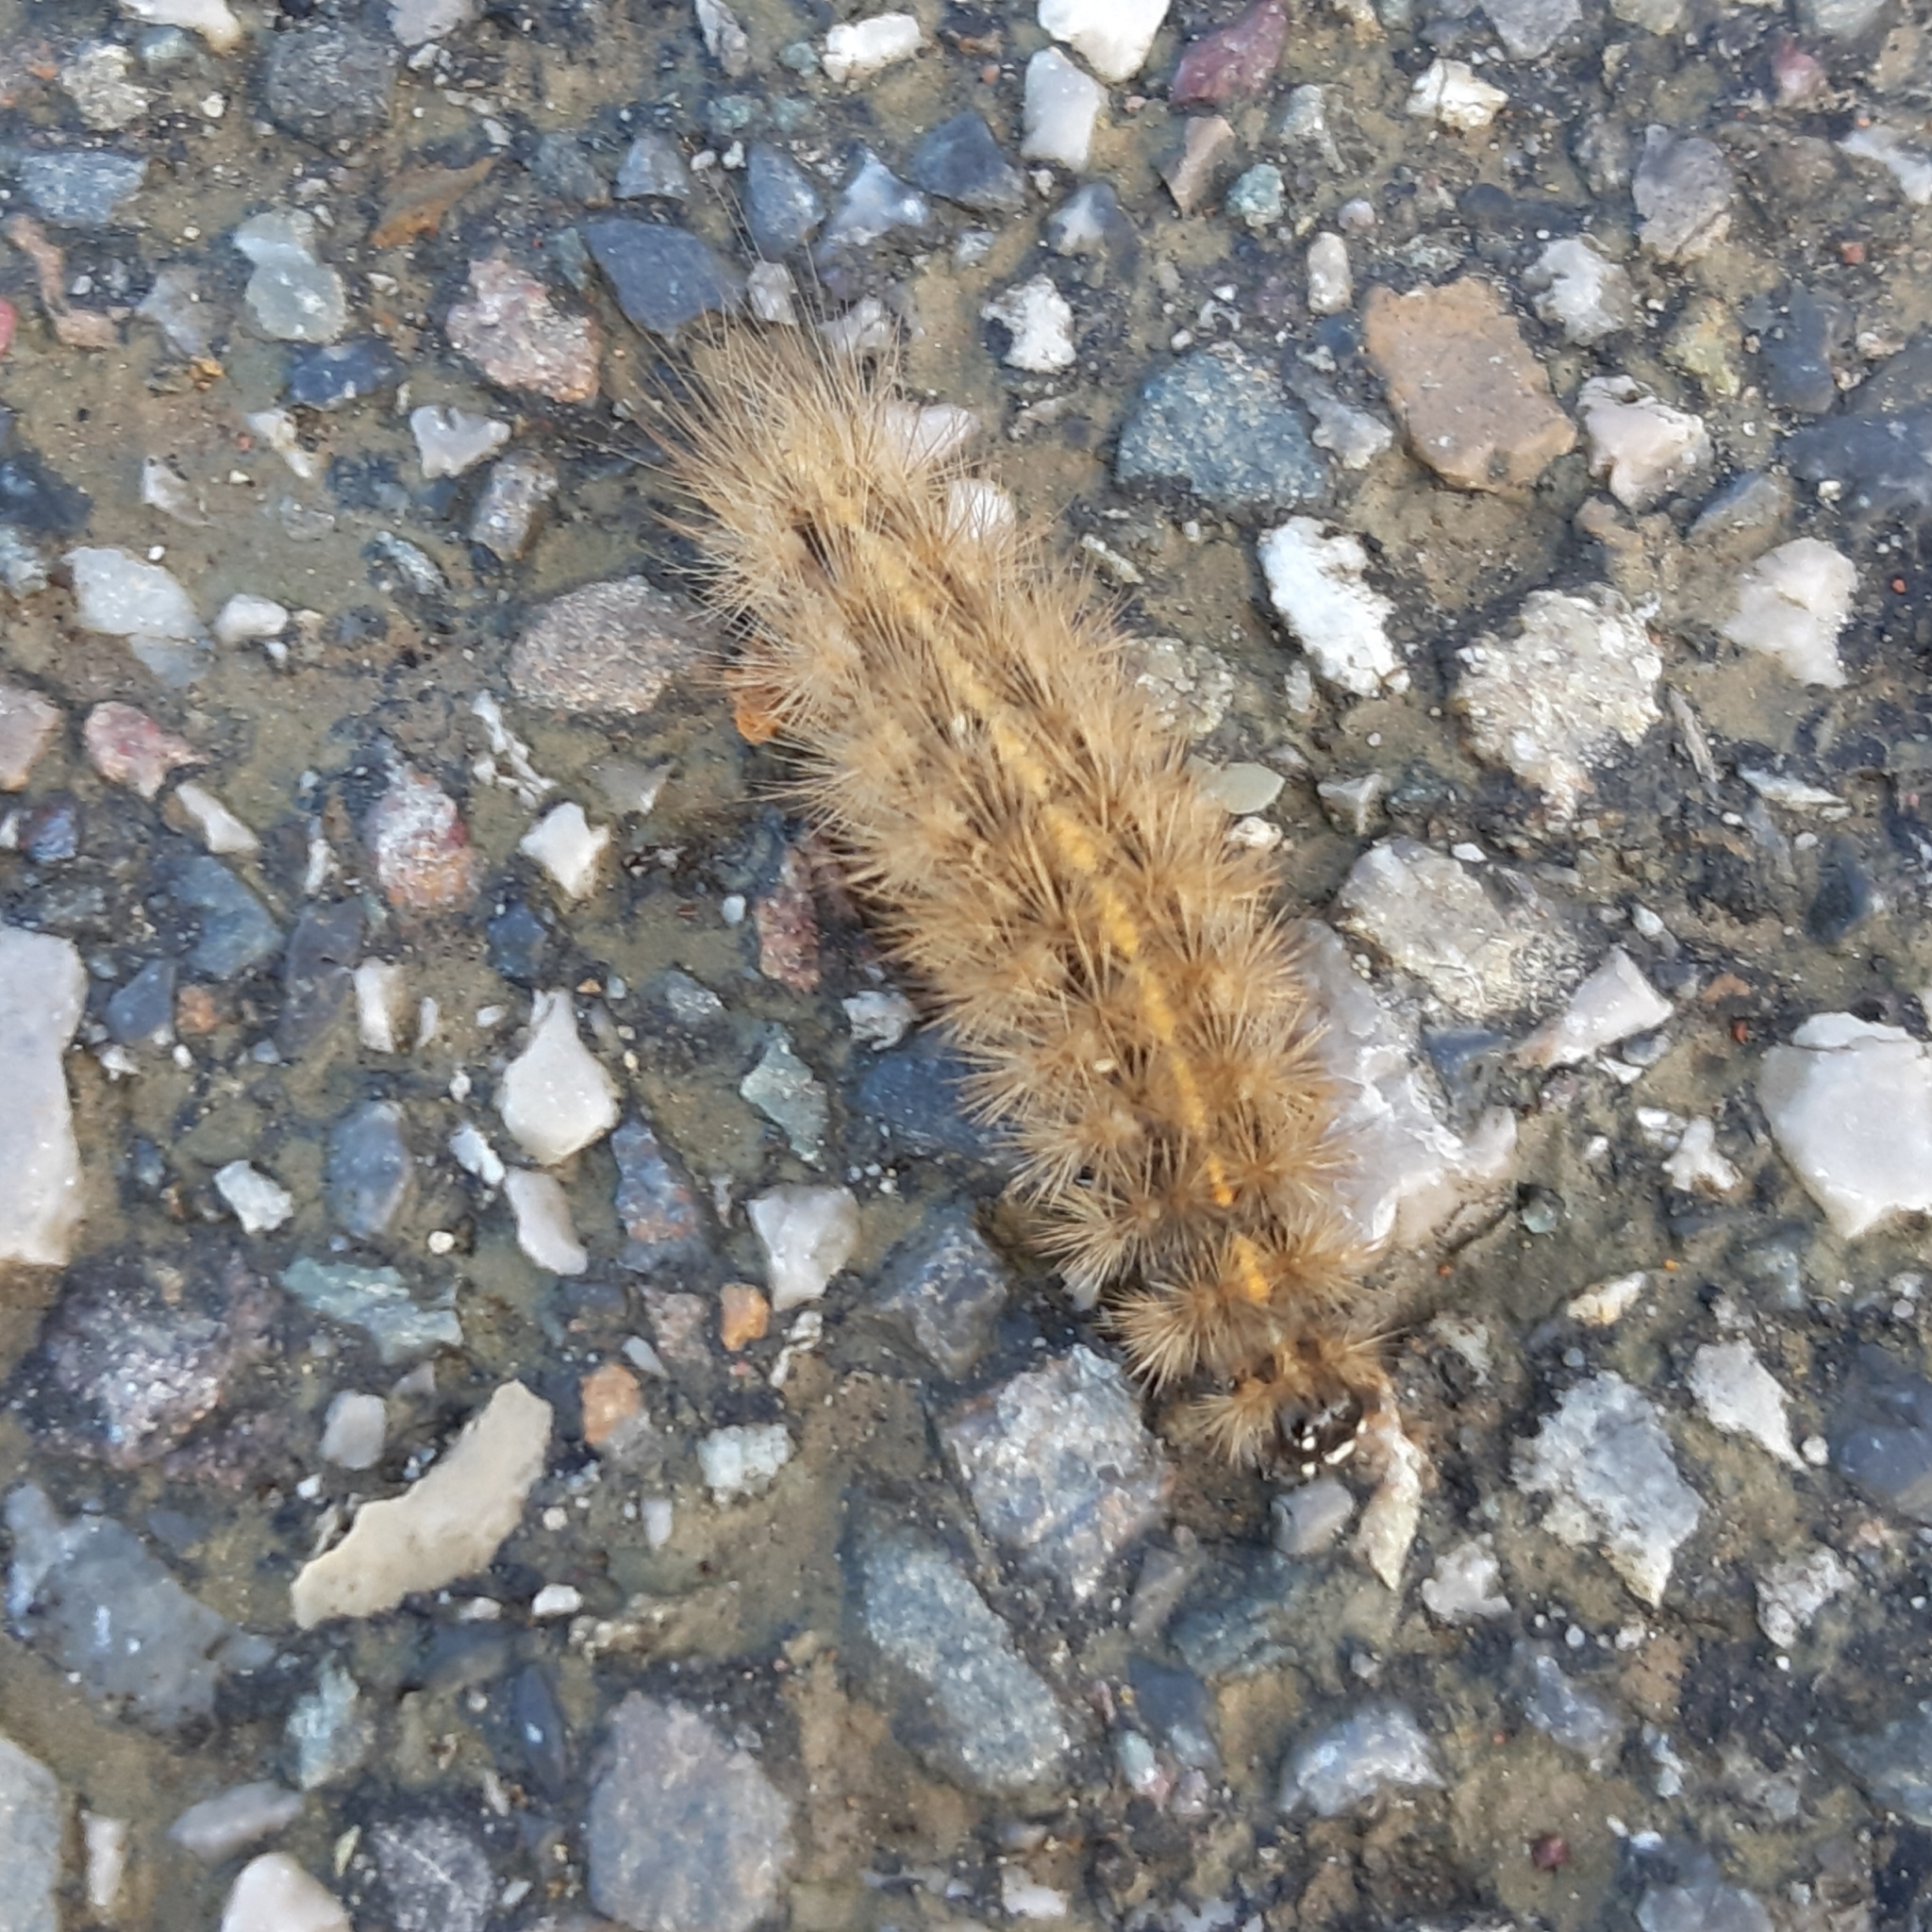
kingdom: Animalia
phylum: Arthropoda
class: Insecta
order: Lepidoptera
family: Erebidae
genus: Phragmatobia
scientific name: Phragmatobia fuliginosa
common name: Ruby tiger
